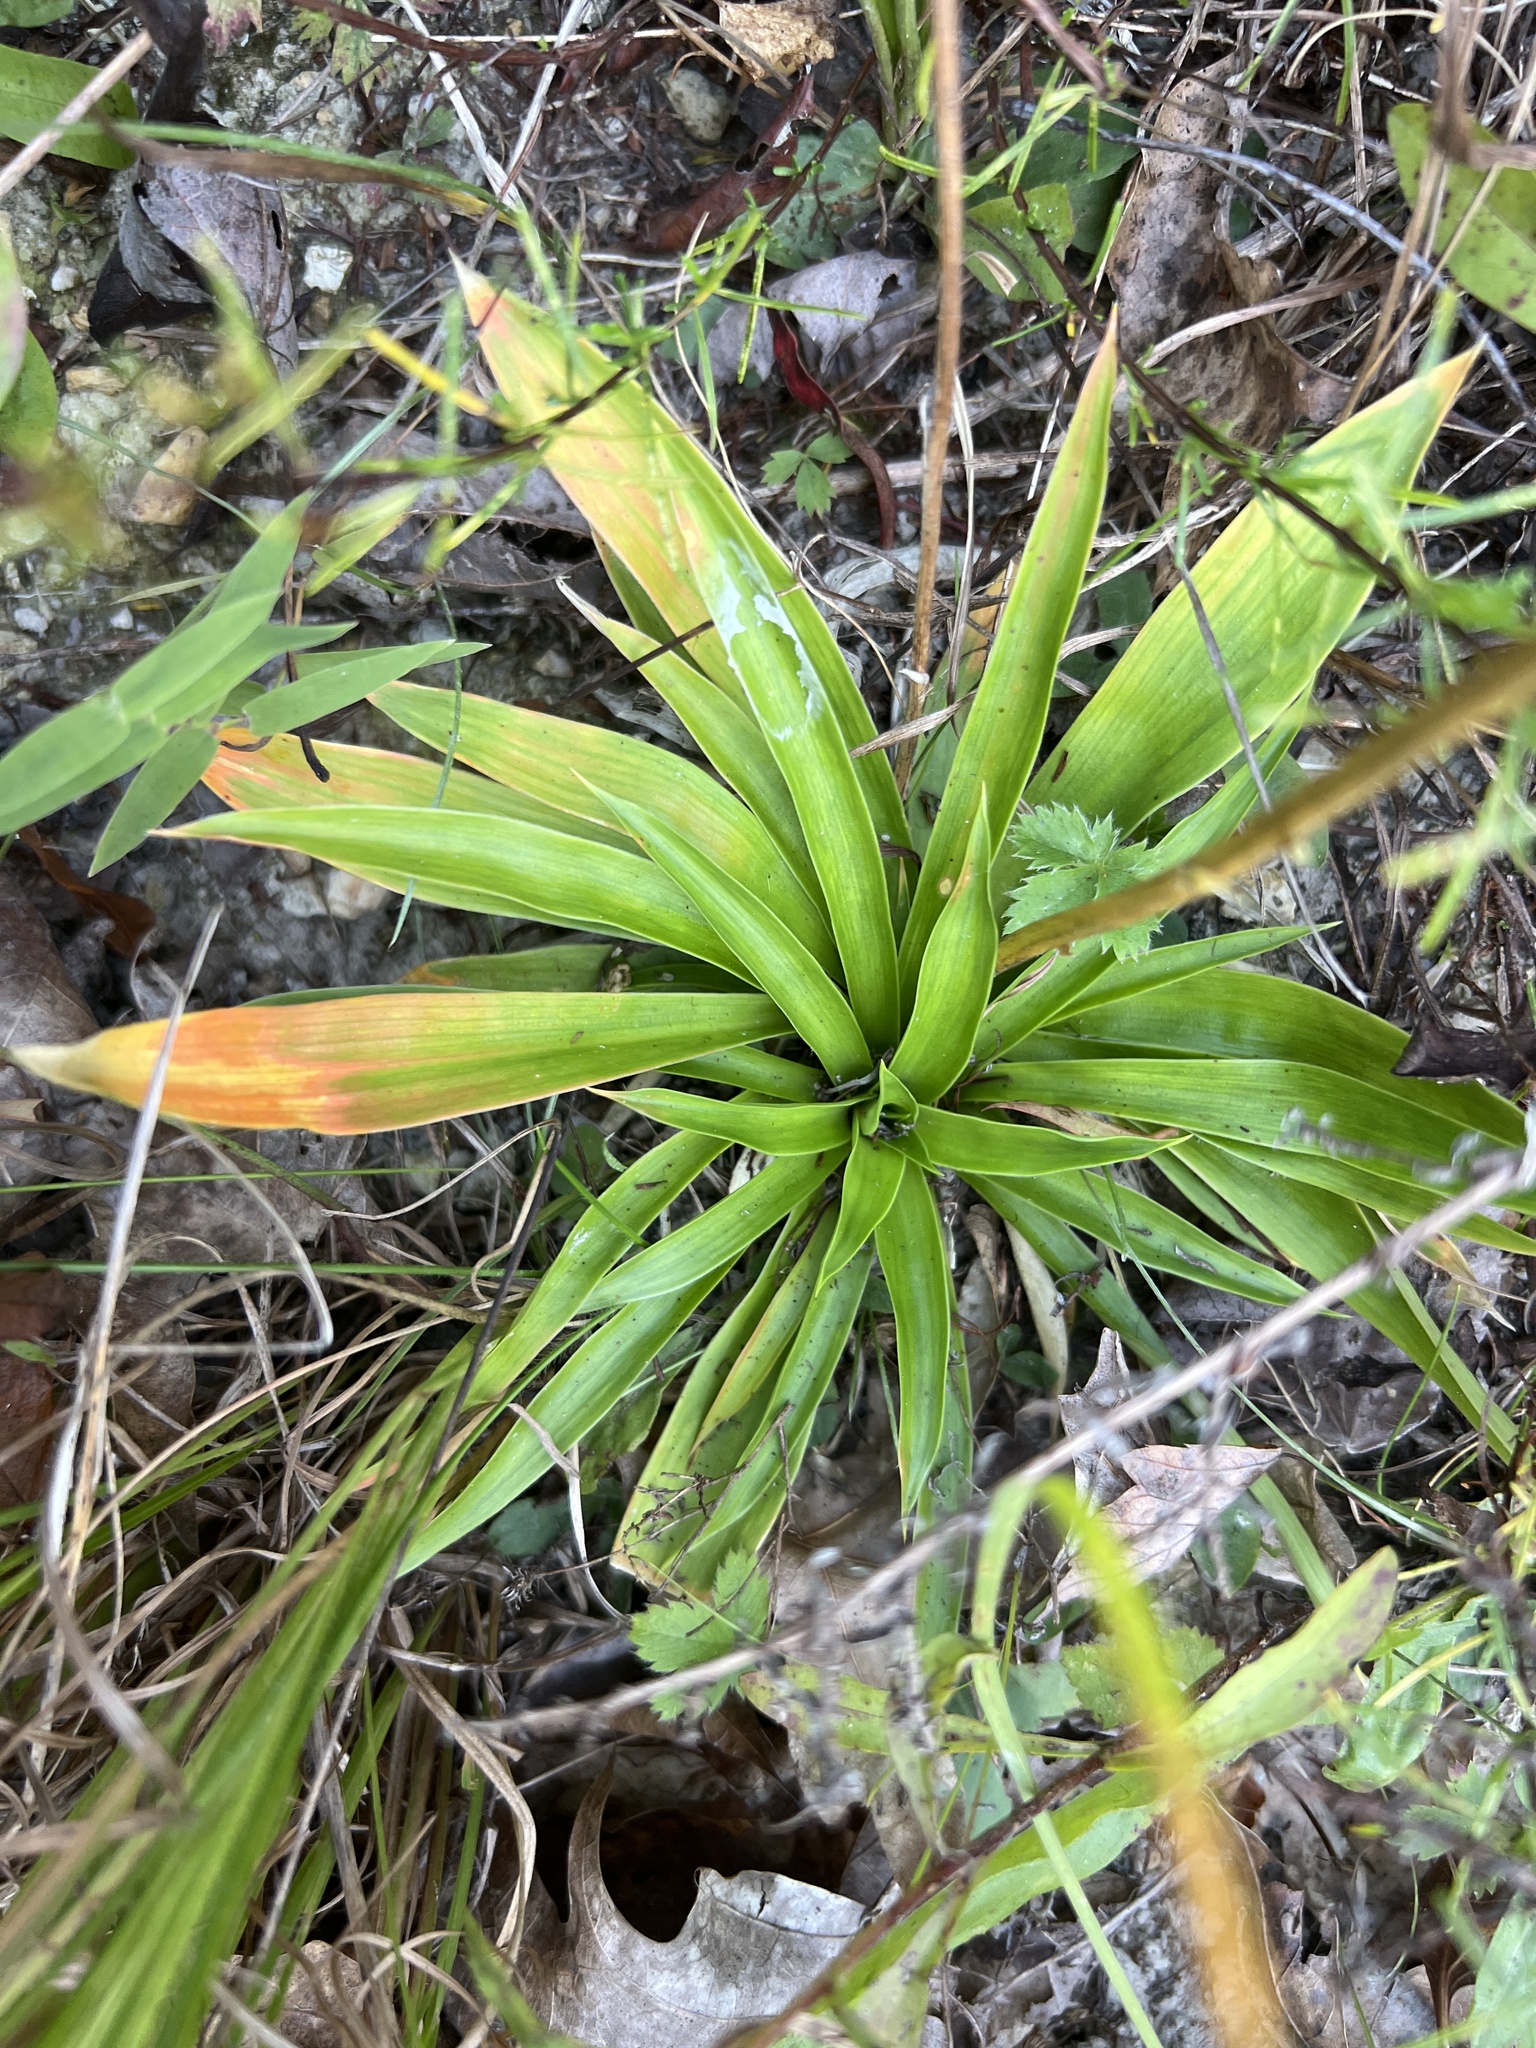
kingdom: Plantae
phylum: Tracheophyta
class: Liliopsida
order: Dioscoreales
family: Nartheciaceae
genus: Aletris
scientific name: Aletris farinosa
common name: Colicroot
